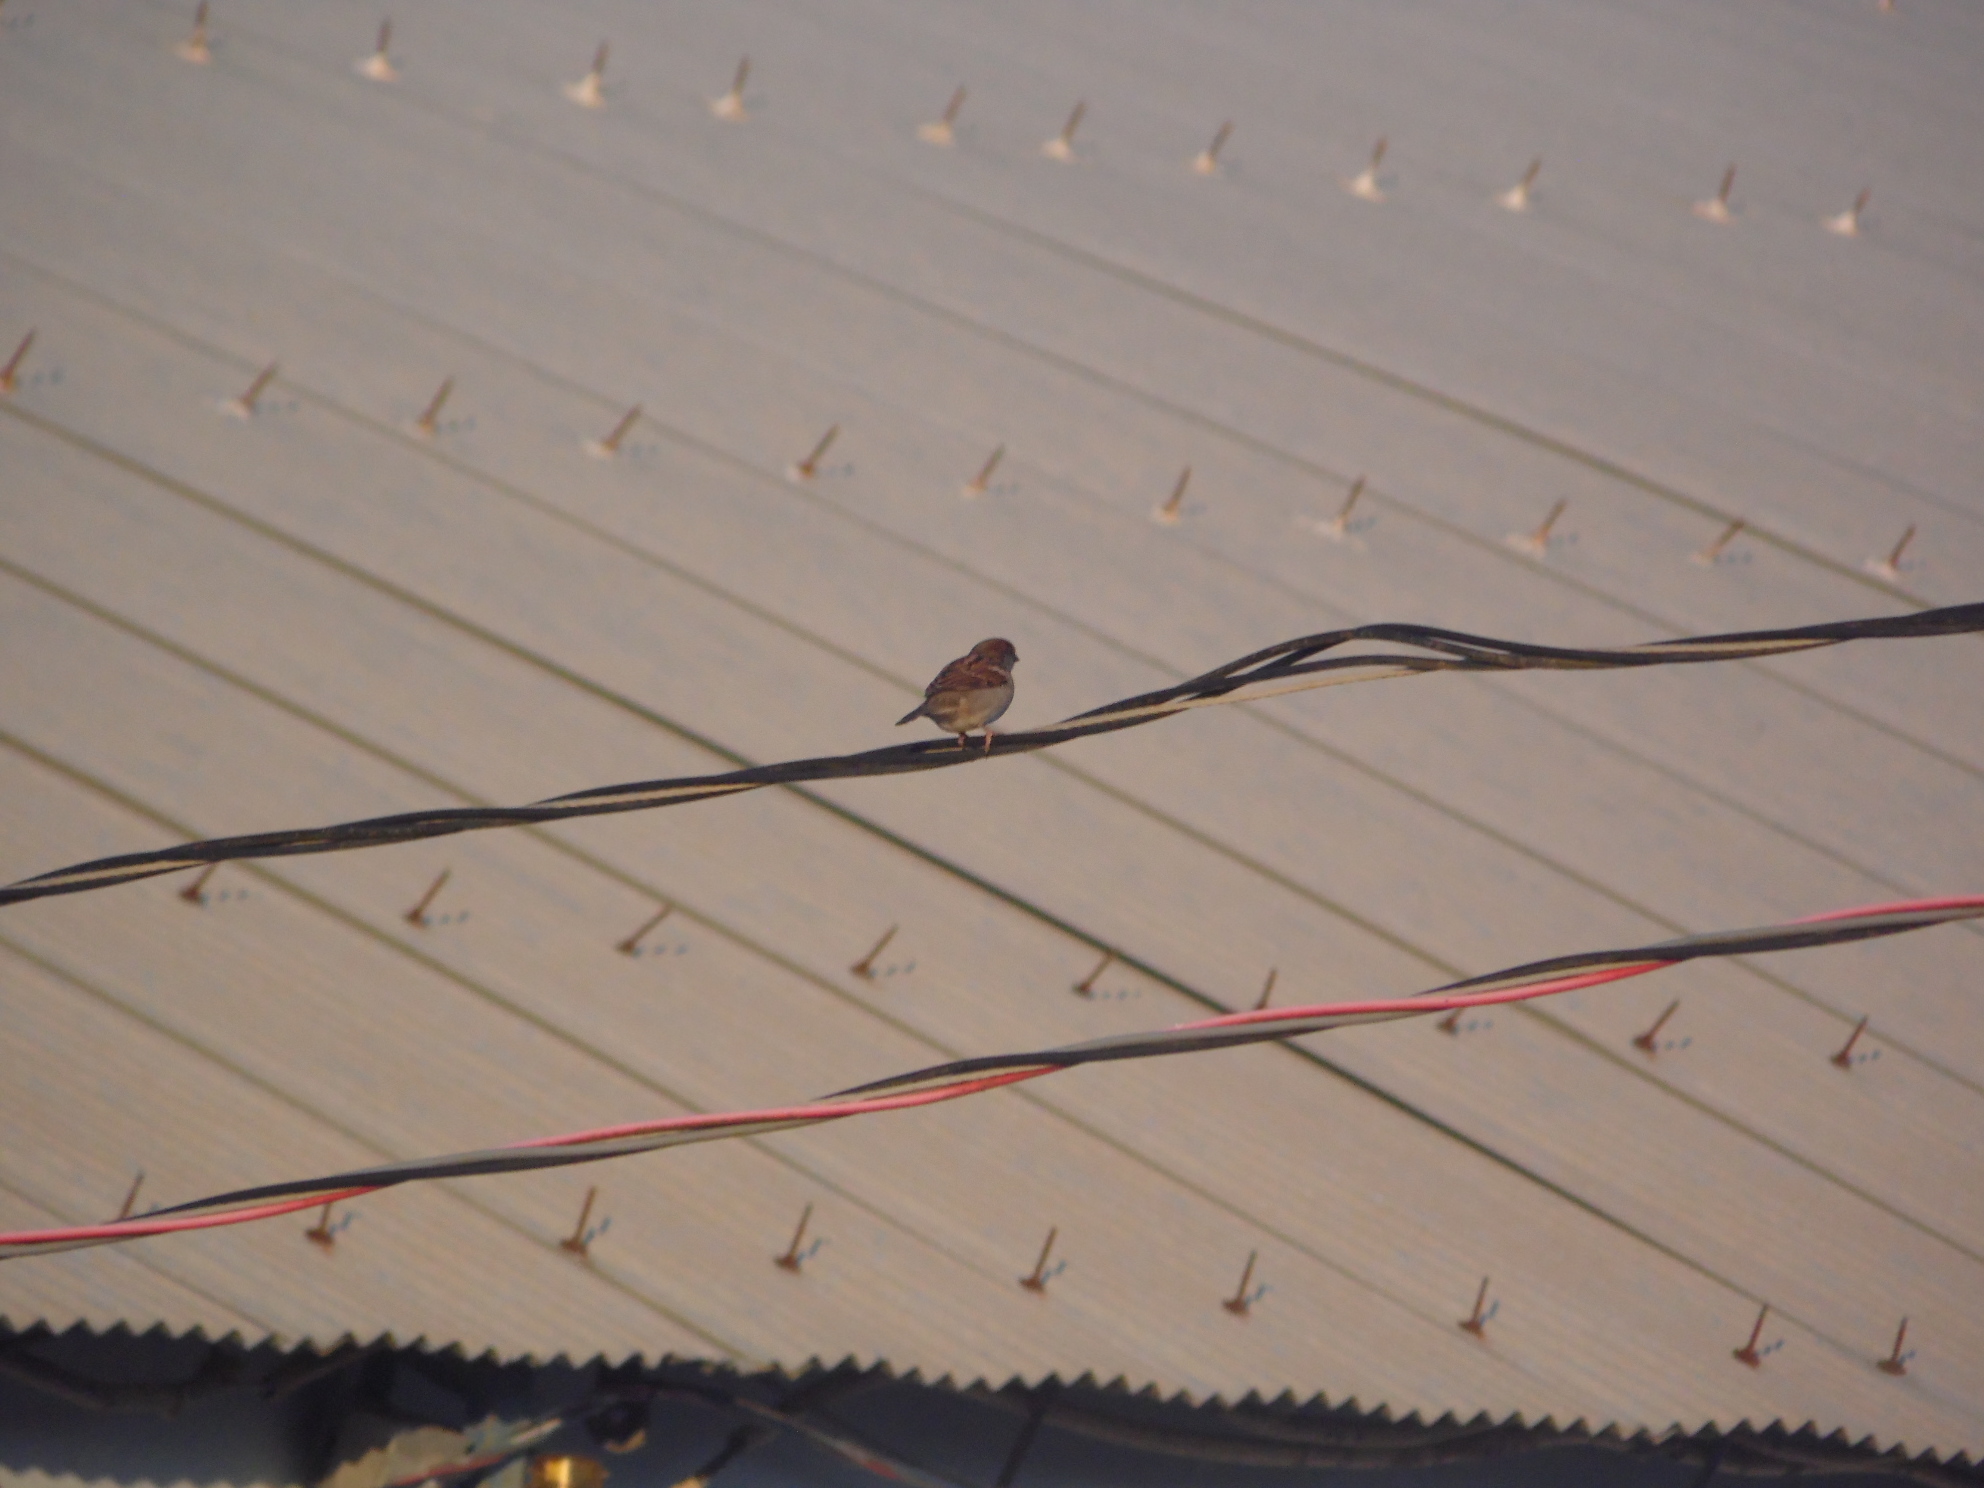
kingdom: Animalia
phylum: Chordata
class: Aves
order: Passeriformes
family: Passeridae
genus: Passer
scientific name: Passer domesticus
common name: House sparrow
